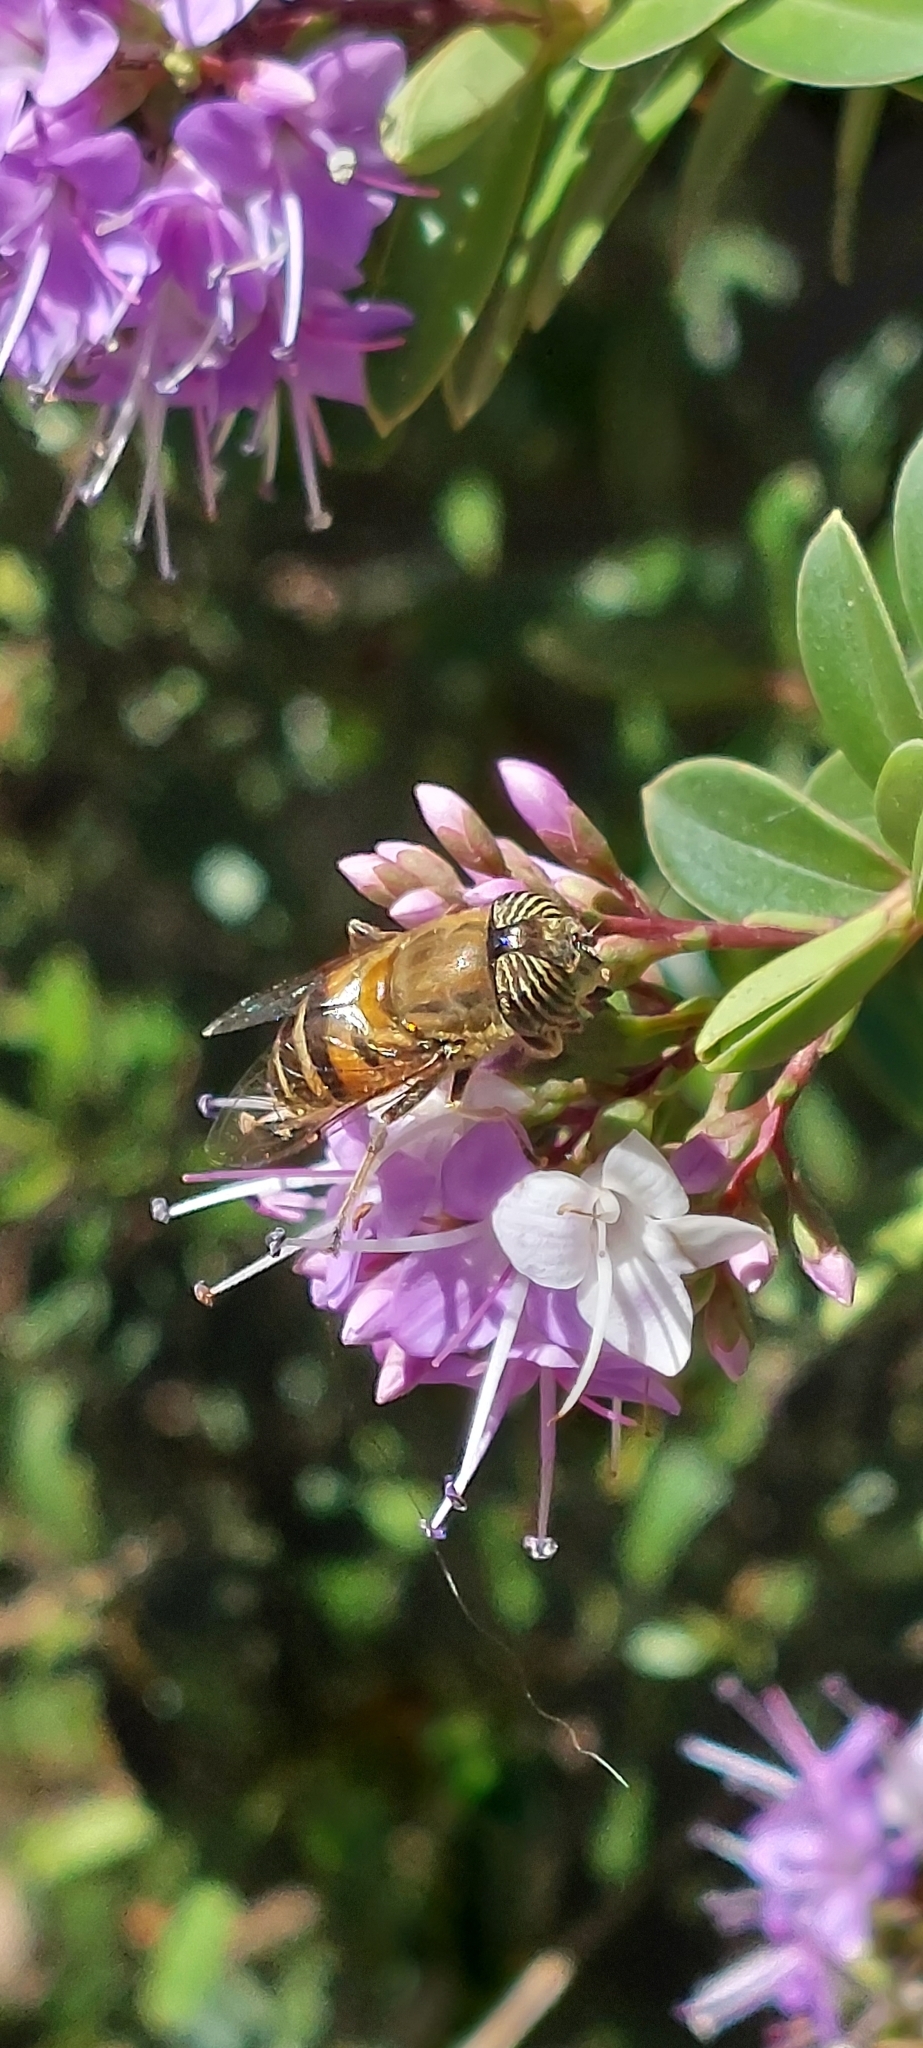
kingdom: Animalia
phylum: Arthropoda
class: Insecta
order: Diptera
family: Syrphidae
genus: Eristalinus
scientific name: Eristalinus taeniops
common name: Syrphid fly
